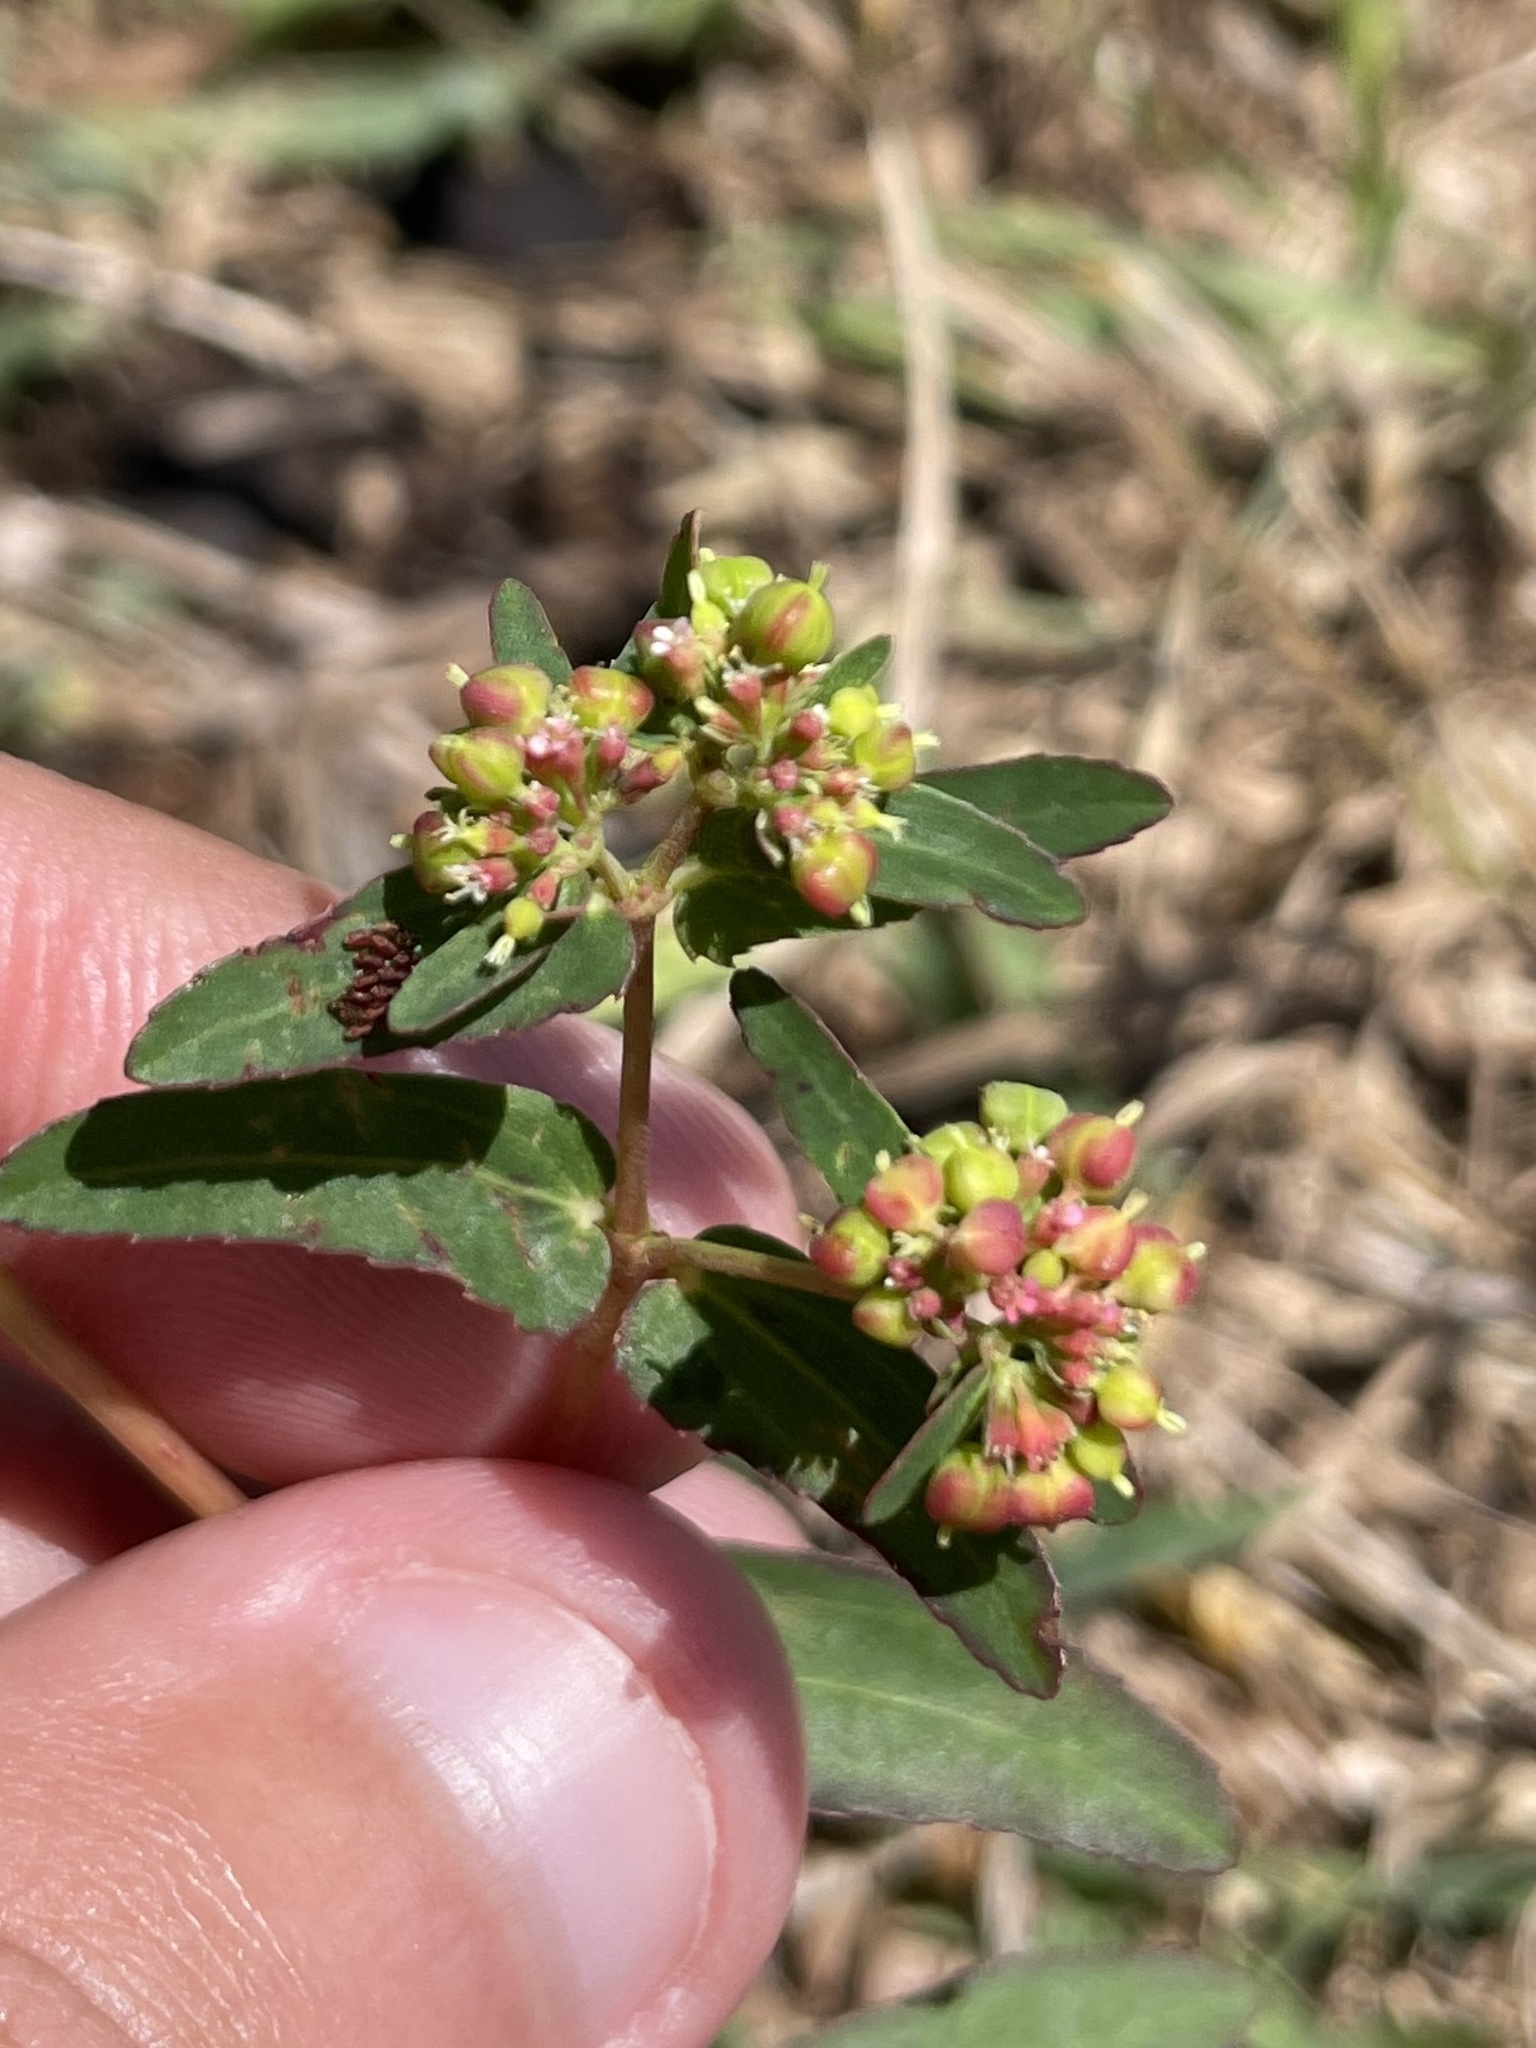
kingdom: Plantae
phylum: Tracheophyta
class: Magnoliopsida
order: Malpighiales
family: Euphorbiaceae
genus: Euphorbia
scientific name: Euphorbia nutans
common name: Eyebane
